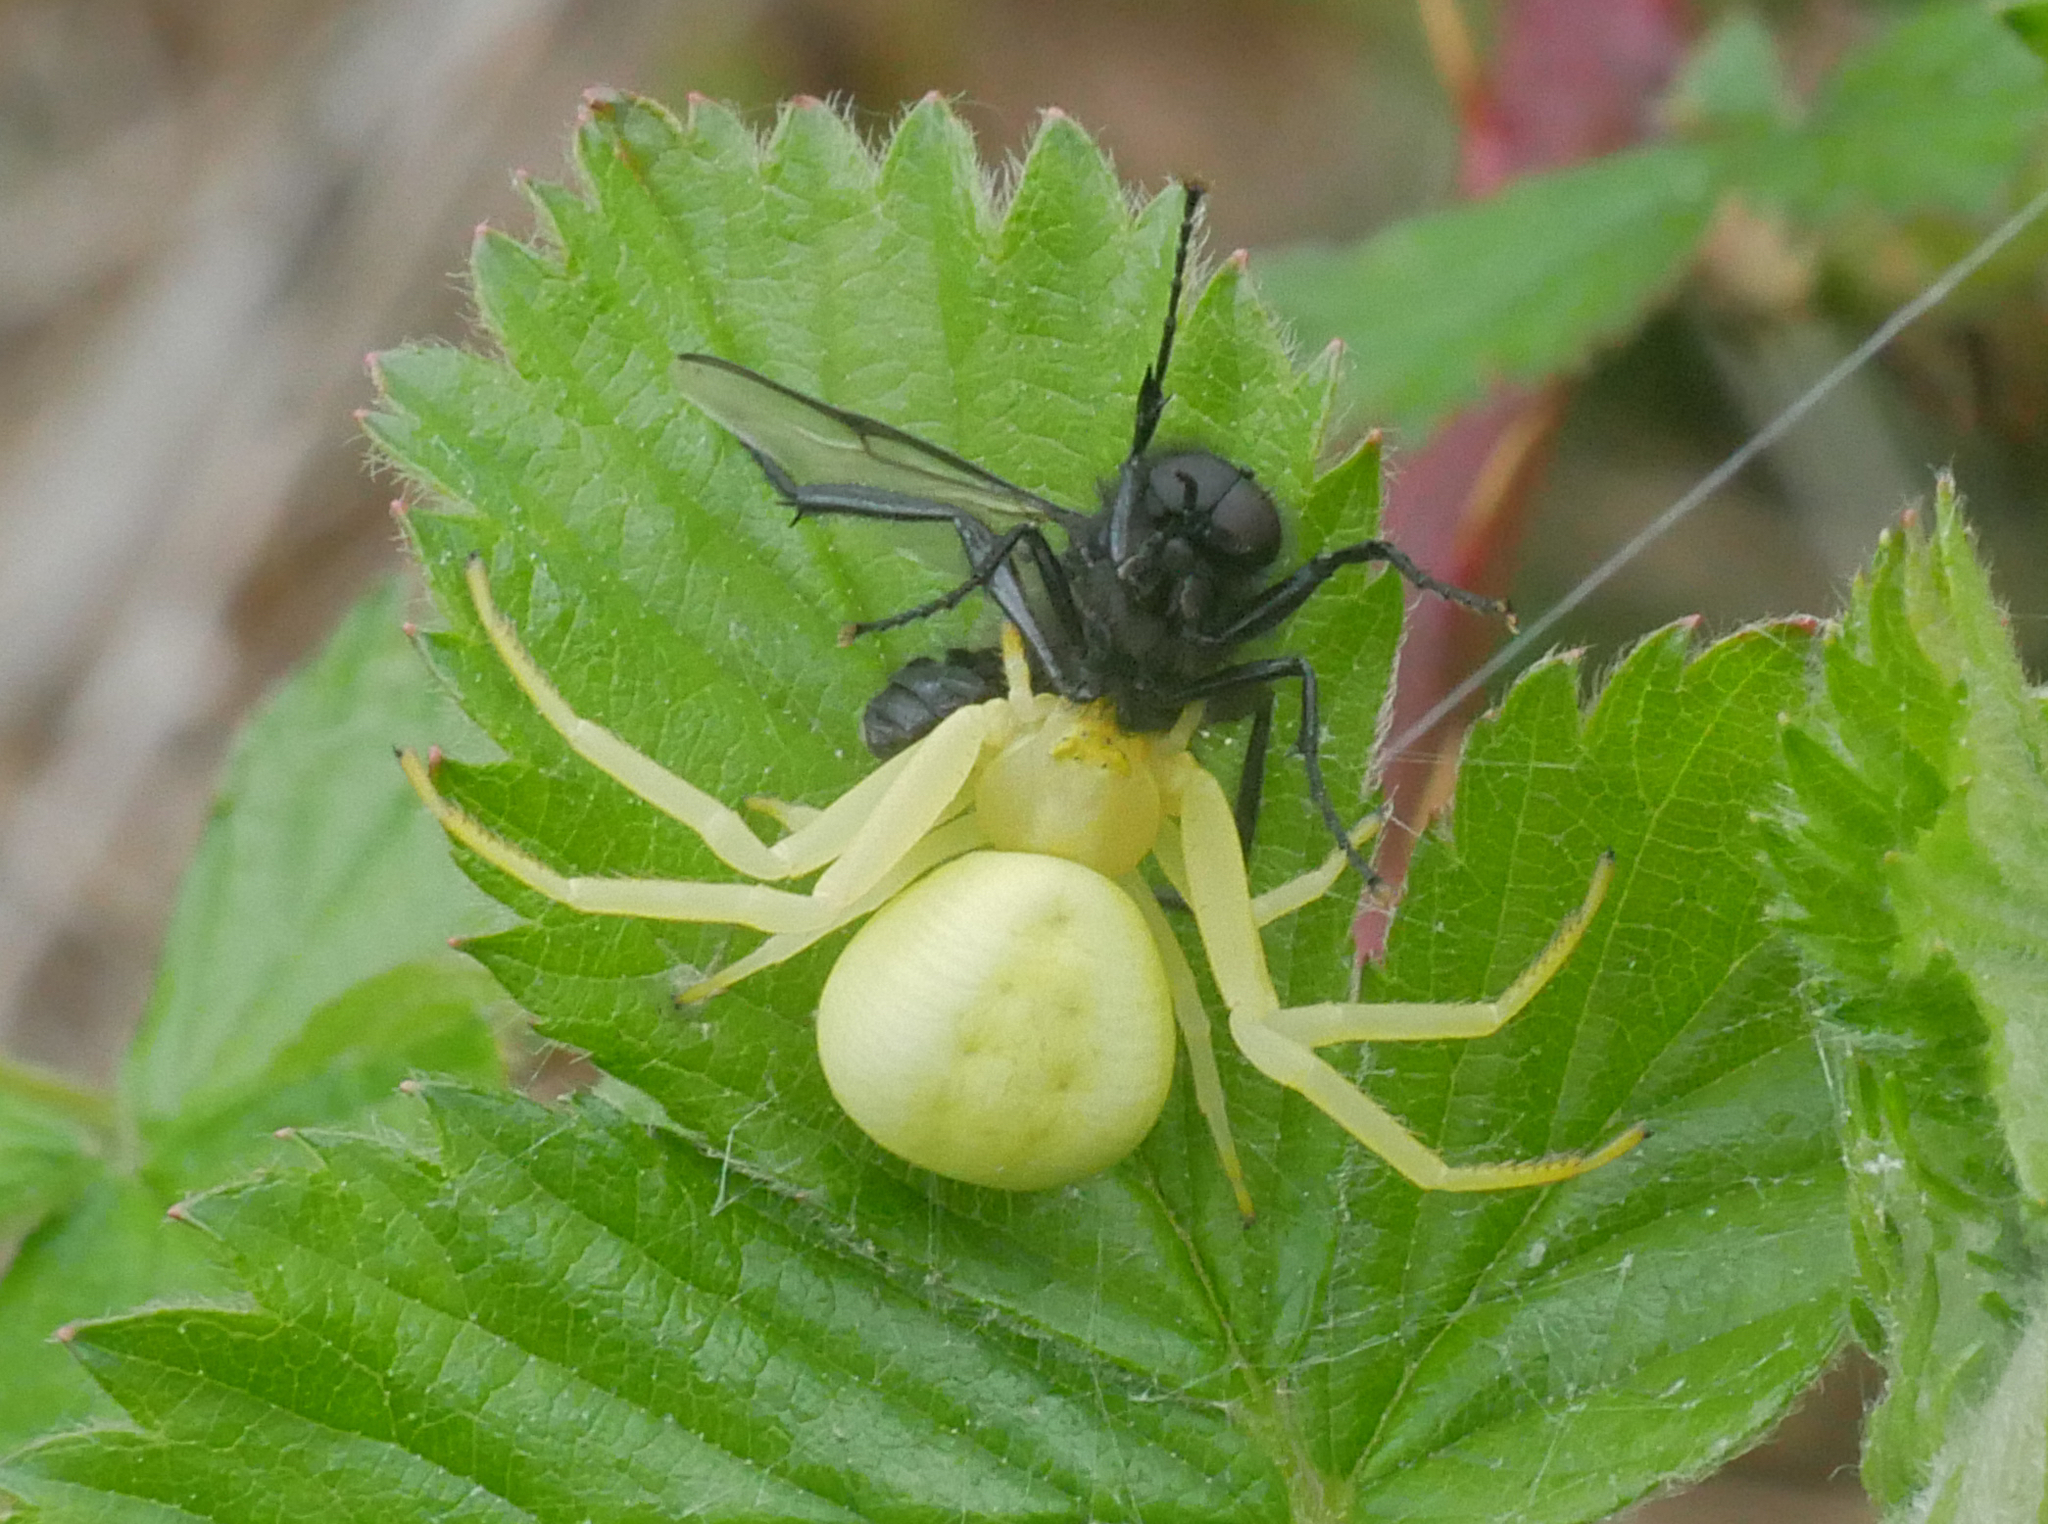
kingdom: Animalia
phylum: Arthropoda
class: Arachnida
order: Araneae
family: Thomisidae
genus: Misumena
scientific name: Misumena vatia
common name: Goldenrod crab spider
